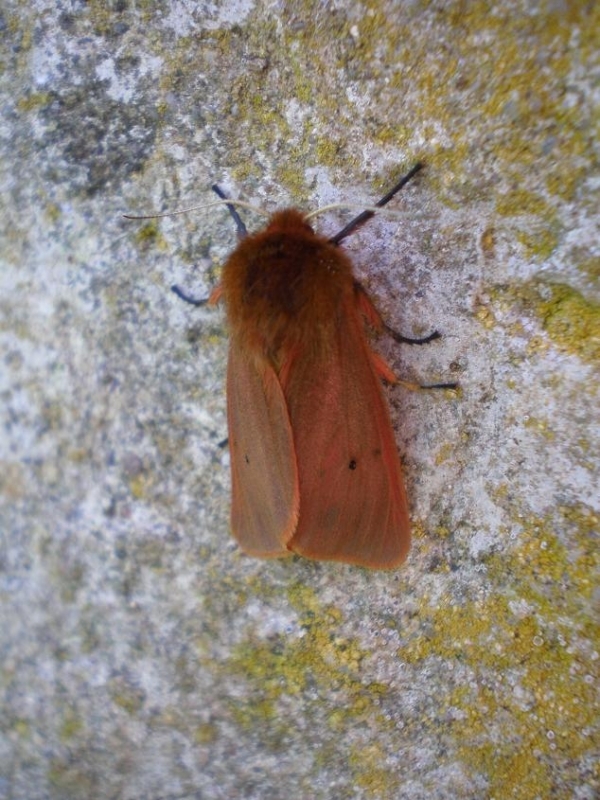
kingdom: Animalia
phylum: Arthropoda
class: Insecta
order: Lepidoptera
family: Erebidae
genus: Phragmatobia
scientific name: Phragmatobia fuliginosa
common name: Ruby tiger
